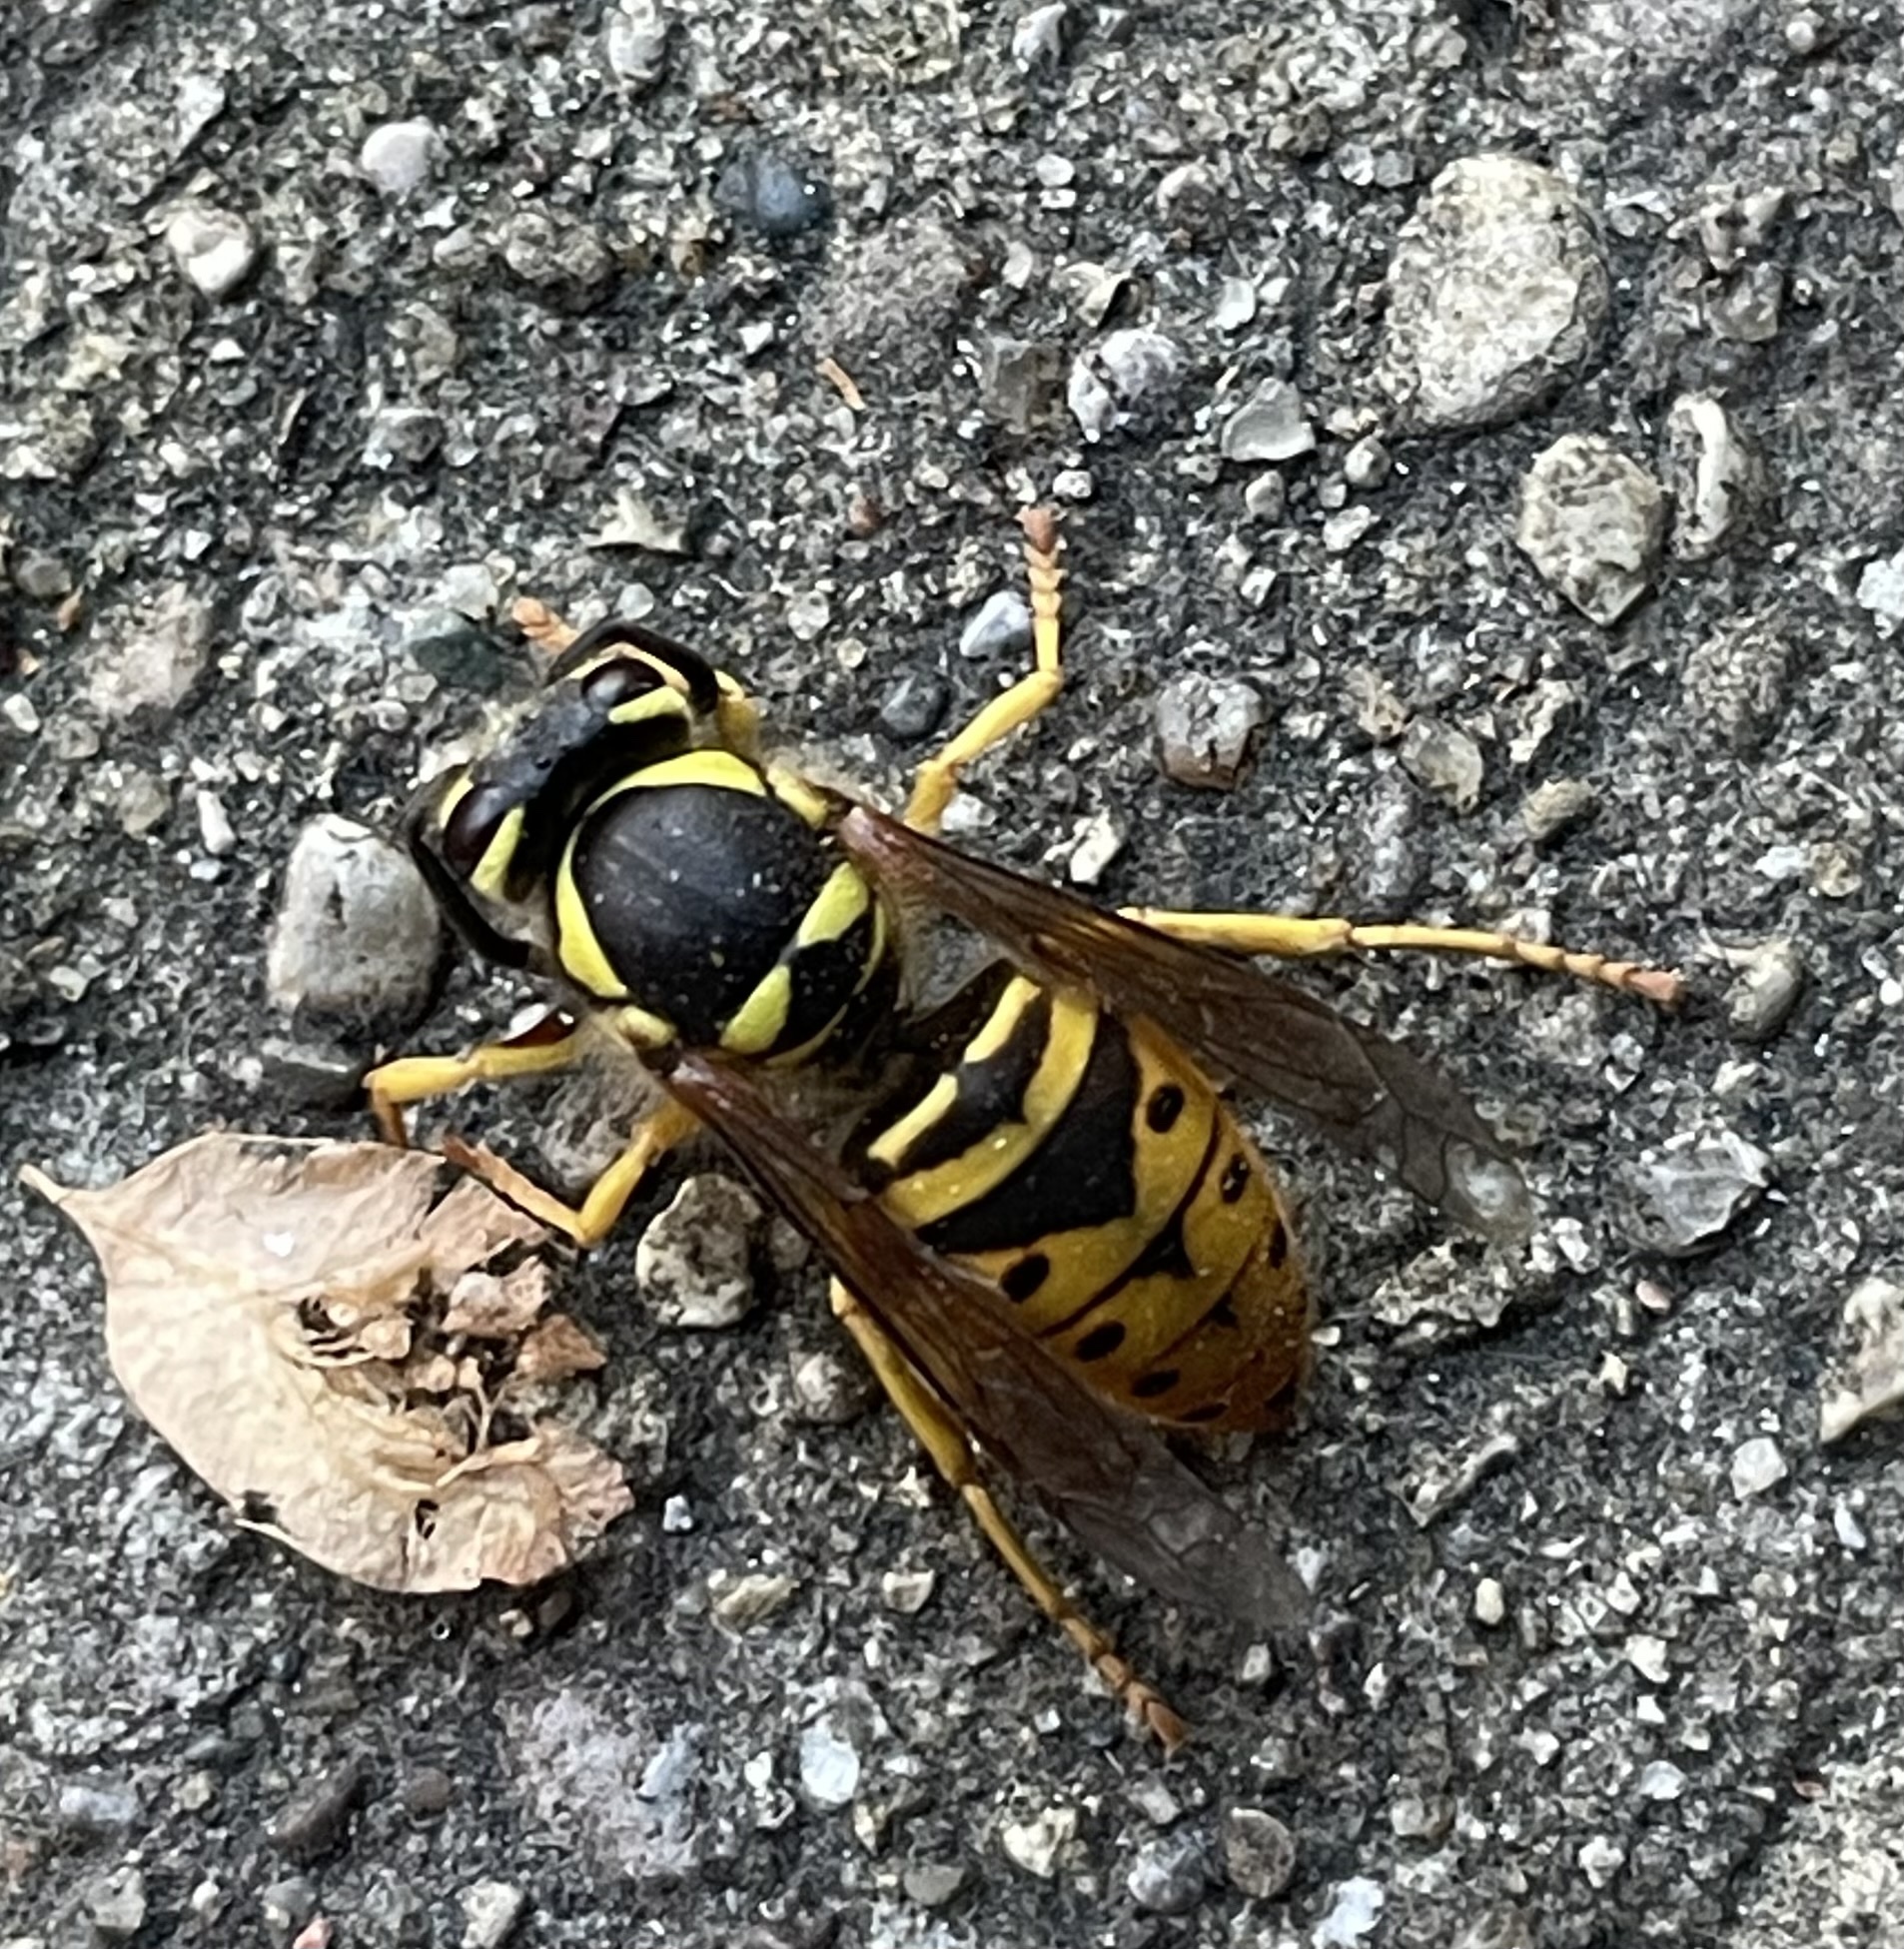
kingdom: Animalia
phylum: Arthropoda
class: Insecta
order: Hymenoptera
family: Vespidae
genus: Vespula
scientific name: Vespula maculifrons
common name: Eastern yellowjacket
